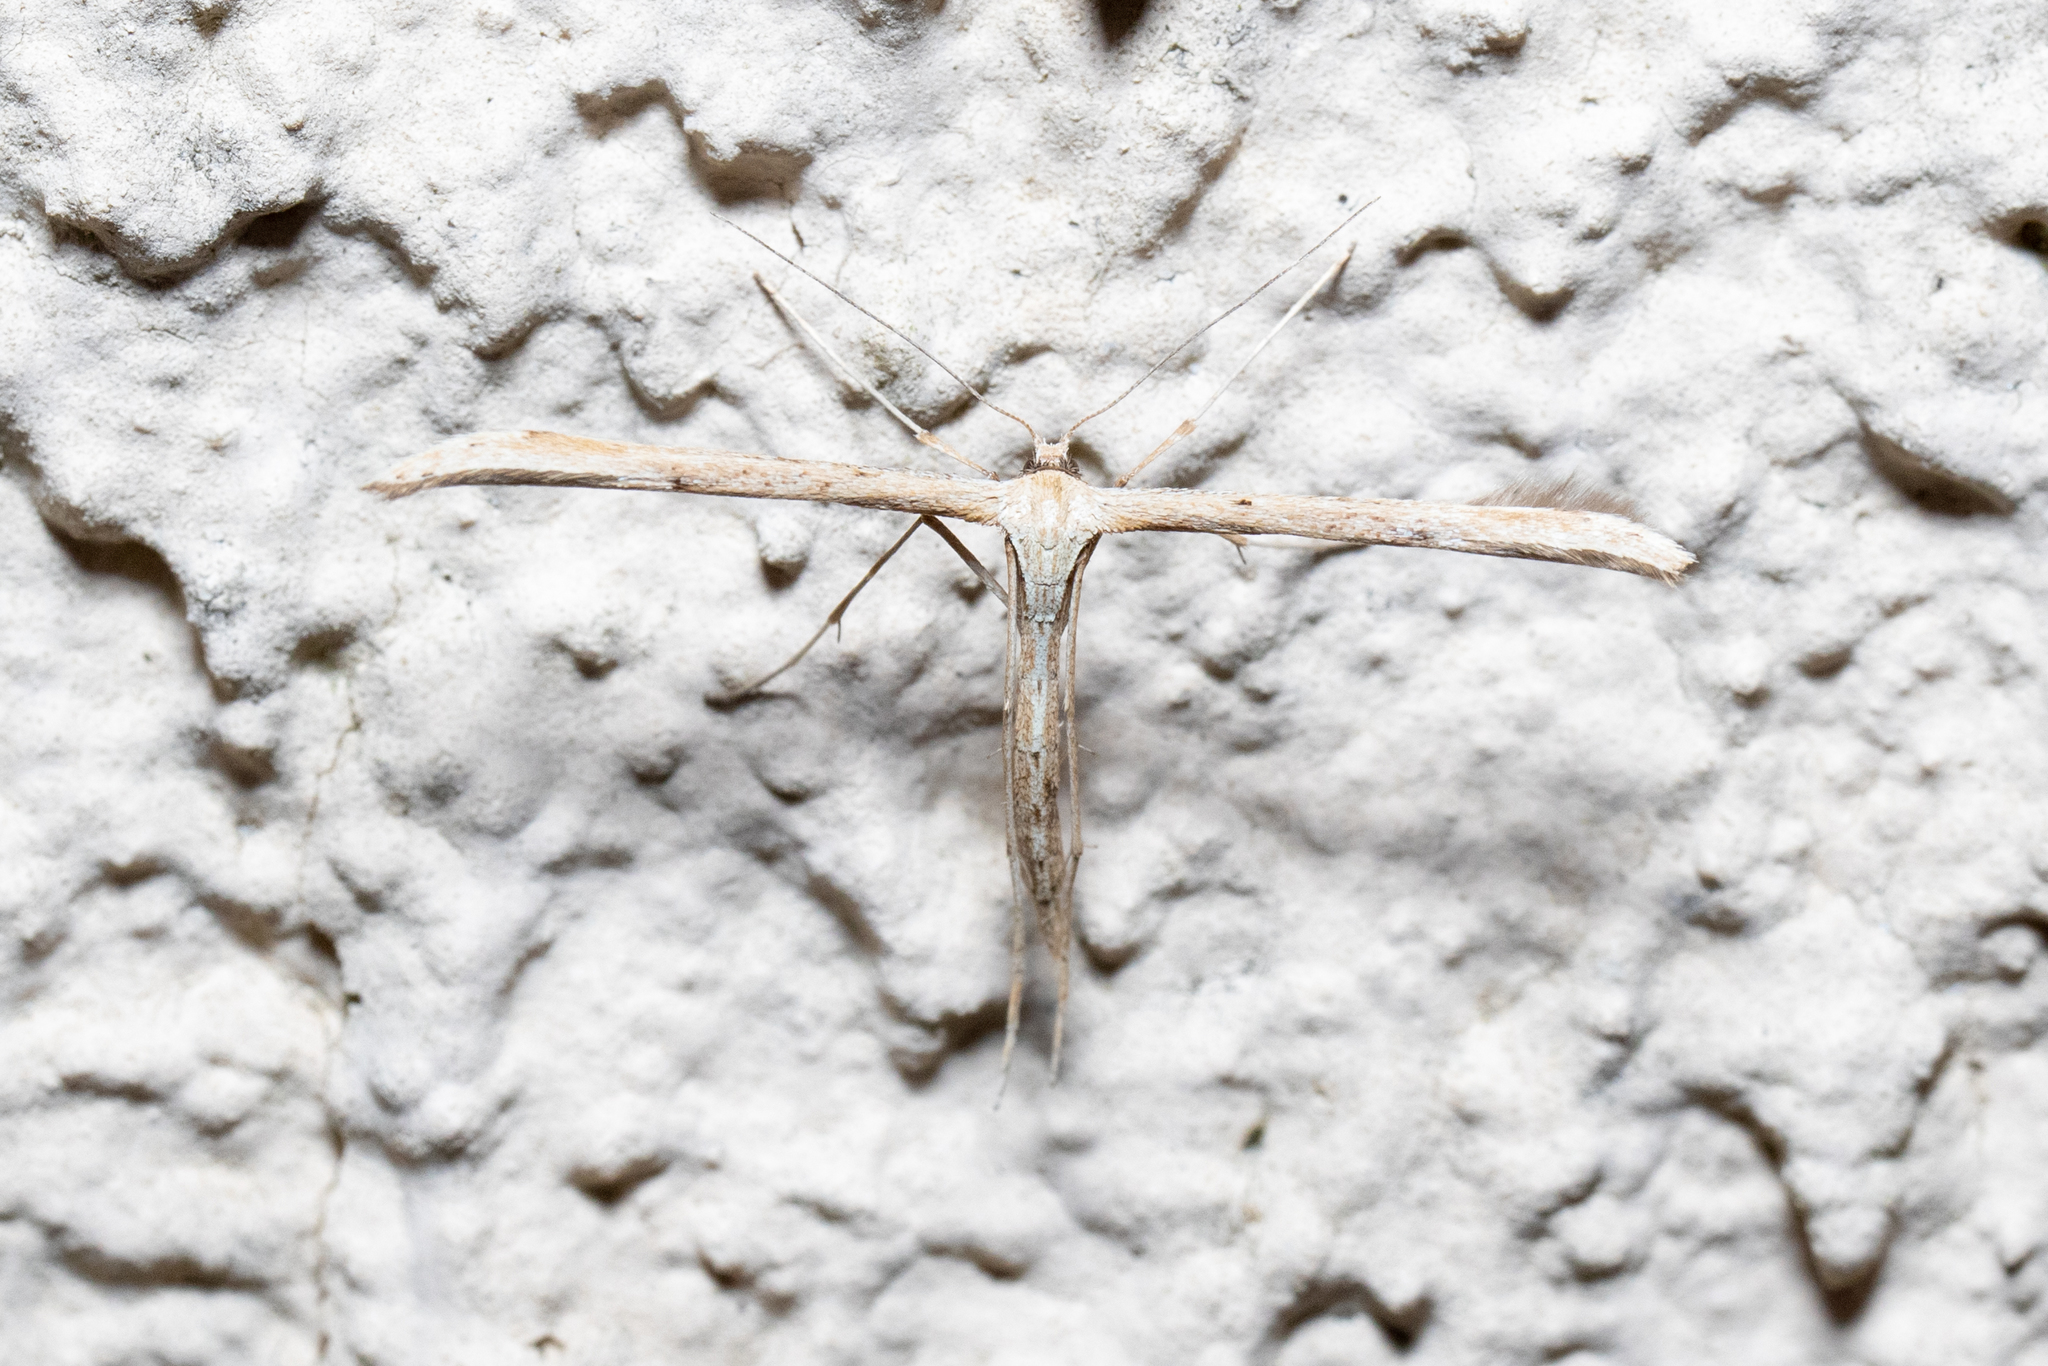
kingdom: Animalia
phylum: Arthropoda
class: Insecta
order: Lepidoptera
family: Pterophoridae
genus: Emmelina
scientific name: Emmelina monodactyla
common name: Common plume
